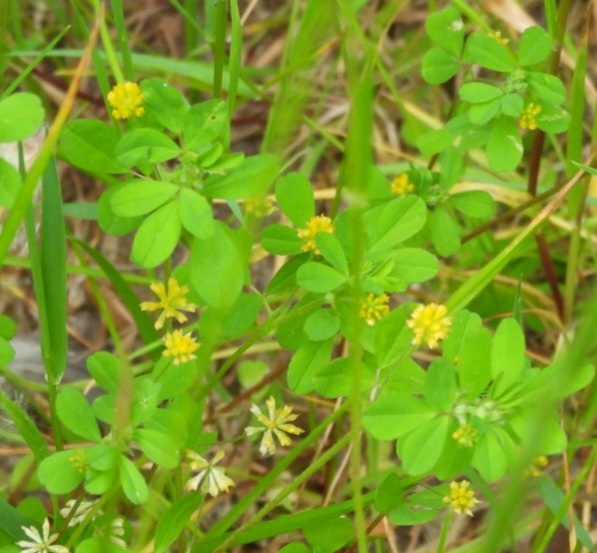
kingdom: Plantae
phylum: Tracheophyta
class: Magnoliopsida
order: Fabales
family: Fabaceae
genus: Trifolium
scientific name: Trifolium dubium
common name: Suckling clover
